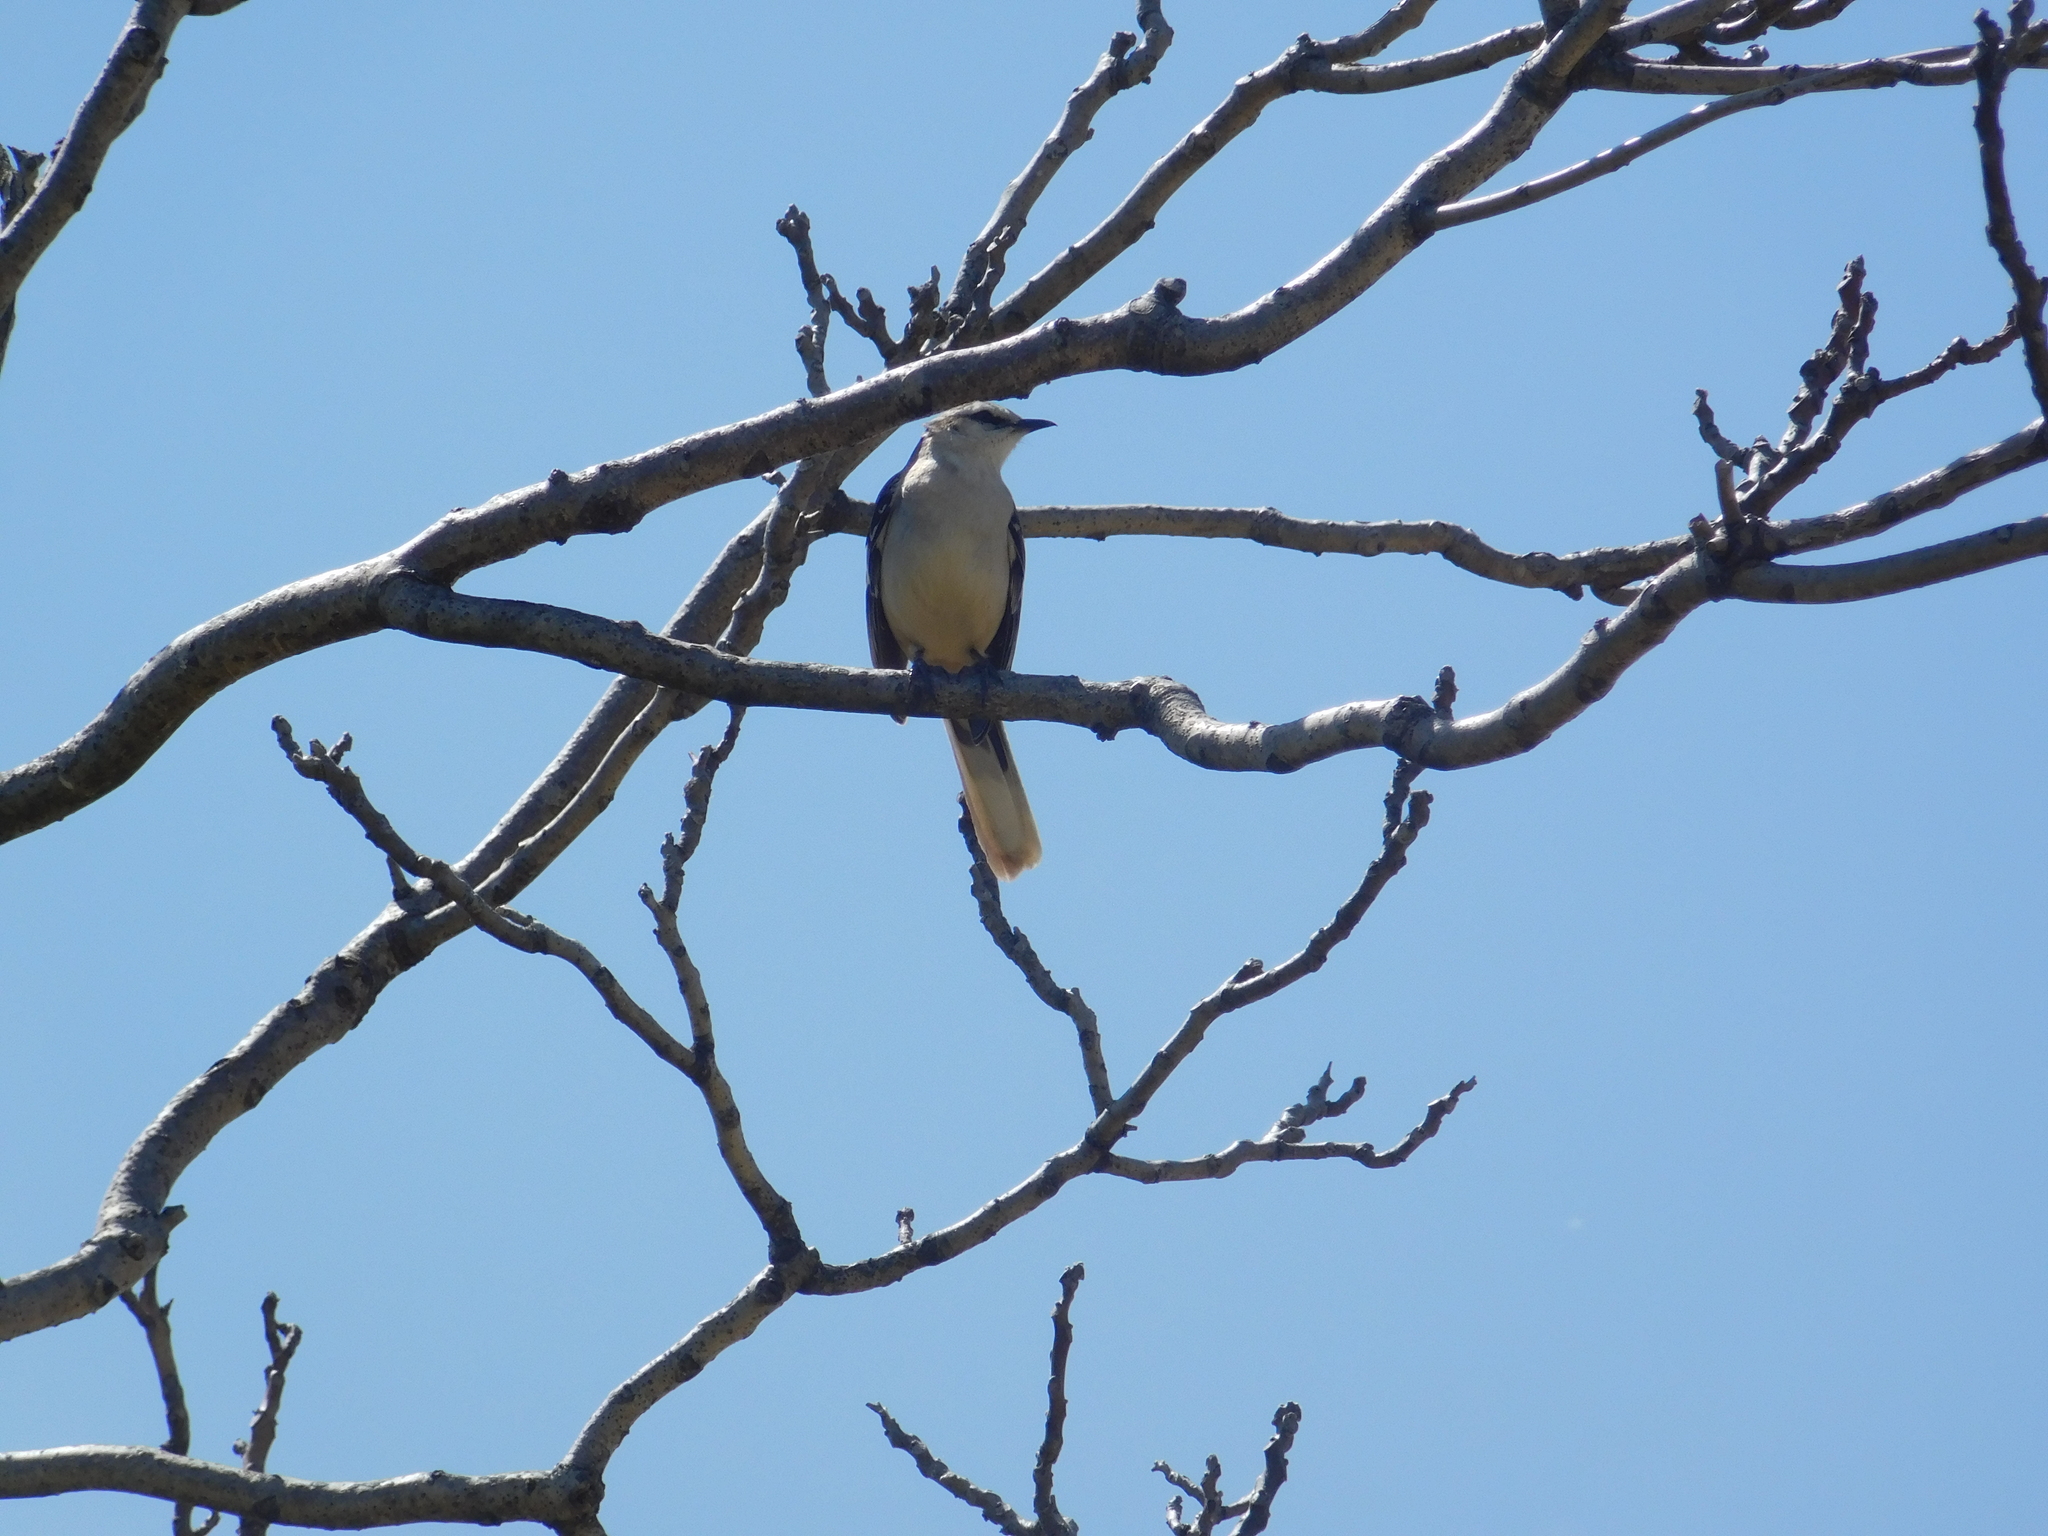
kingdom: Animalia
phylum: Chordata
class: Aves
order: Passeriformes
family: Mimidae
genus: Mimus
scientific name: Mimus saturninus
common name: Chalk-browed mockingbird
